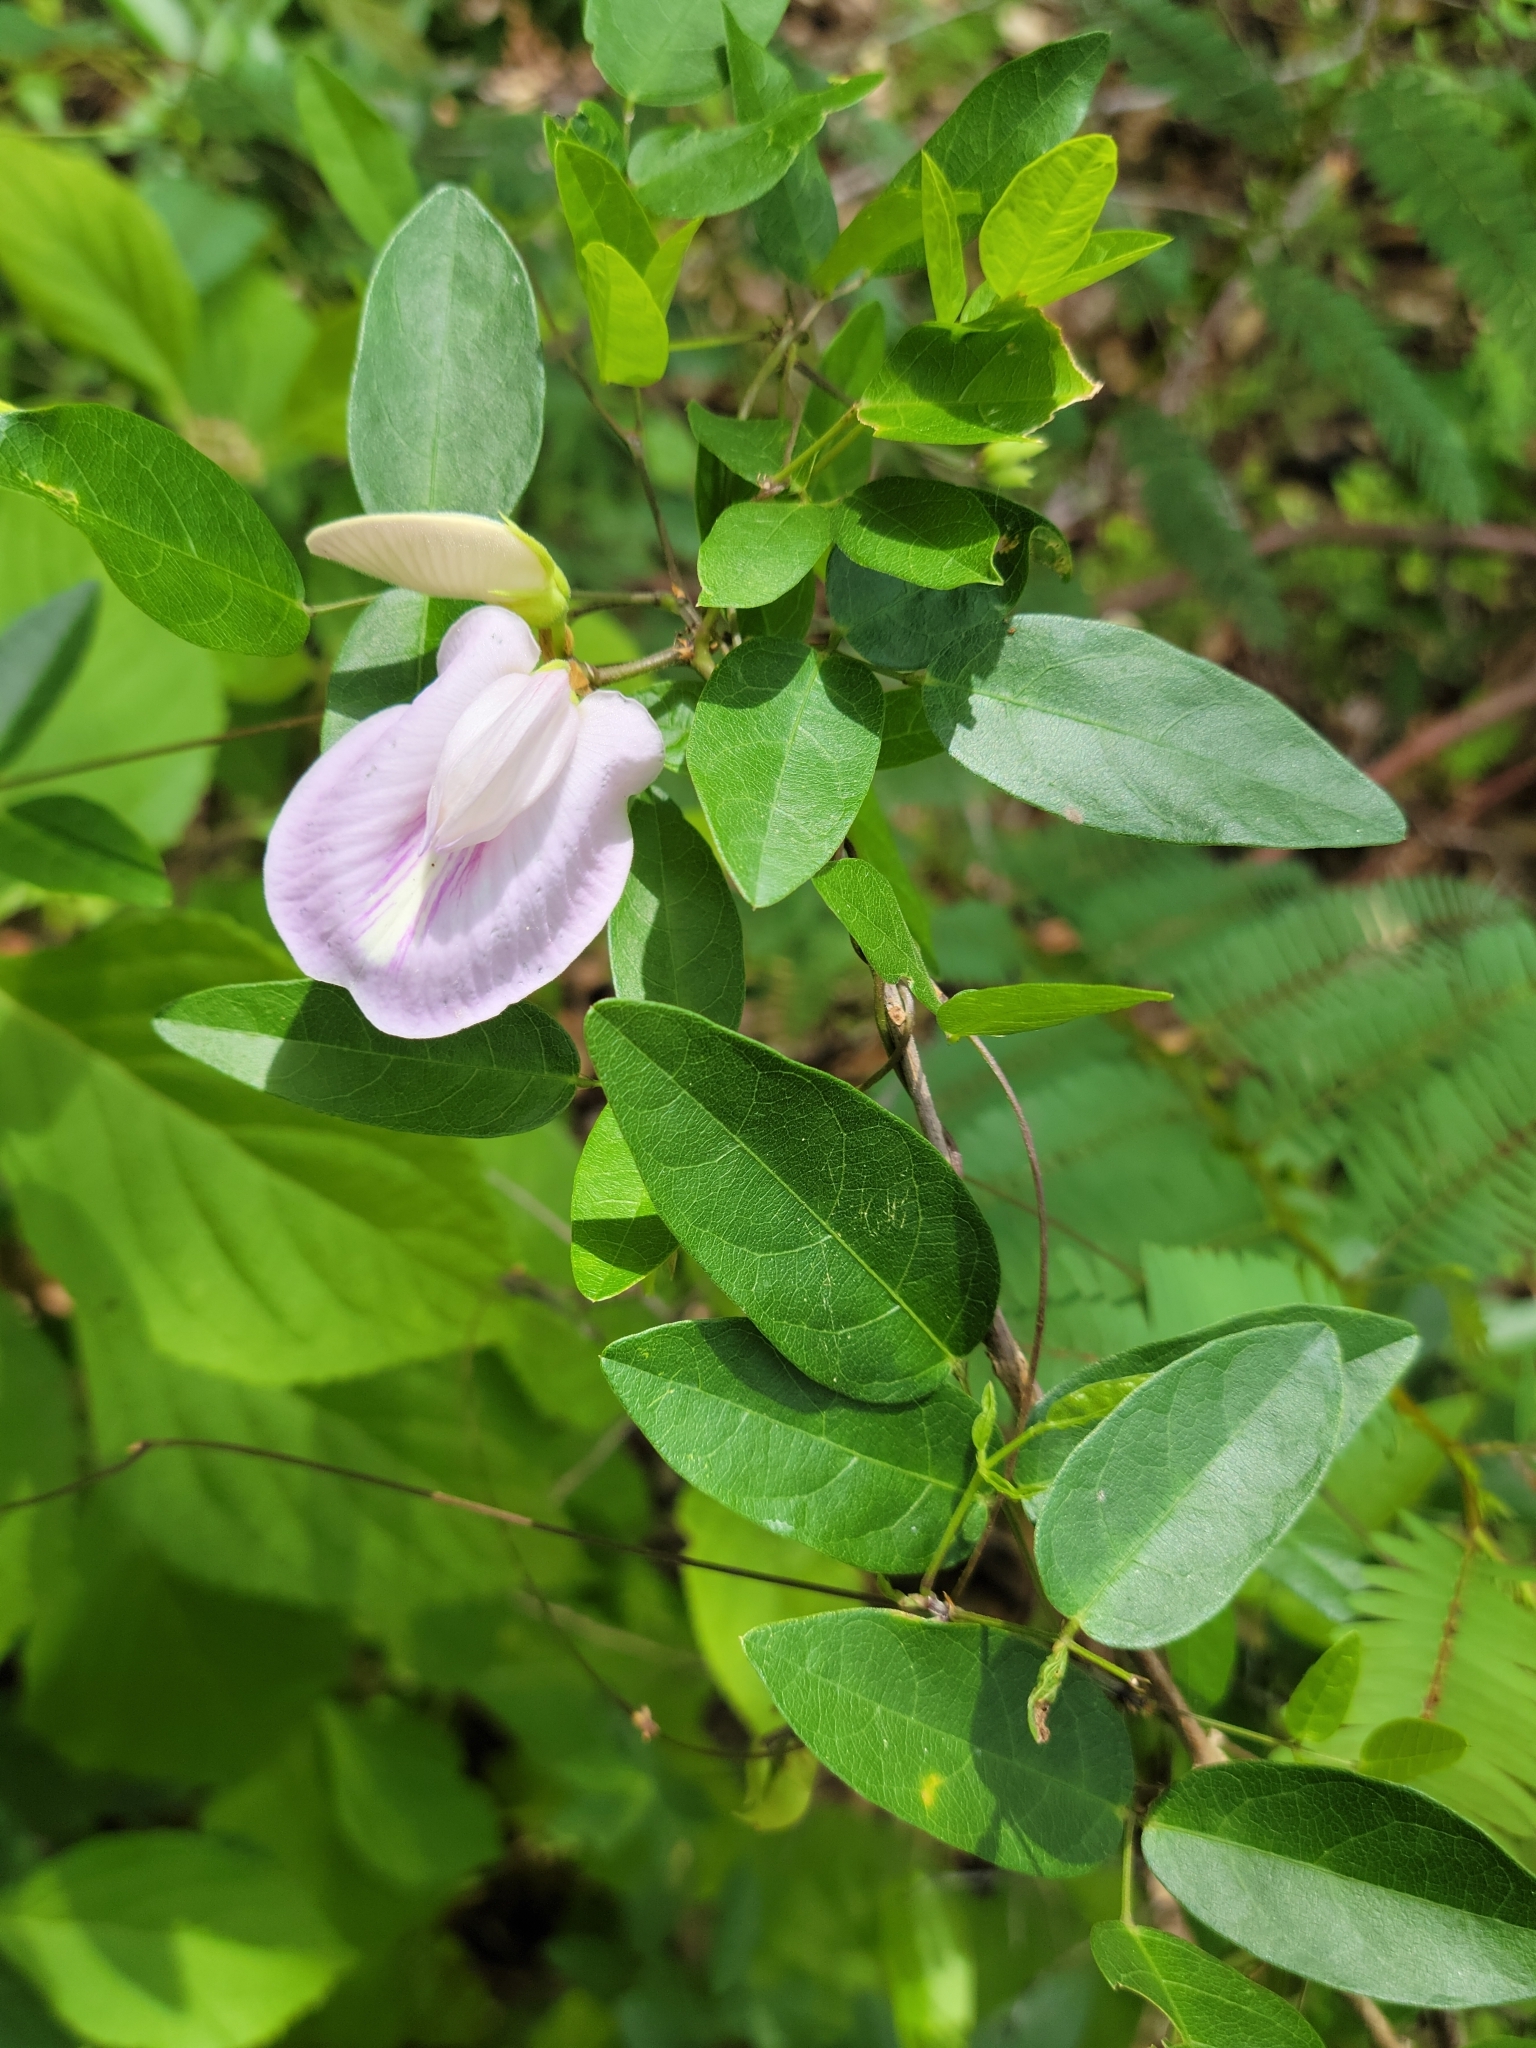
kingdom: Plantae
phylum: Tracheophyta
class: Magnoliopsida
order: Fabales
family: Fabaceae
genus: Centrosema
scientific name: Centrosema arenicola
